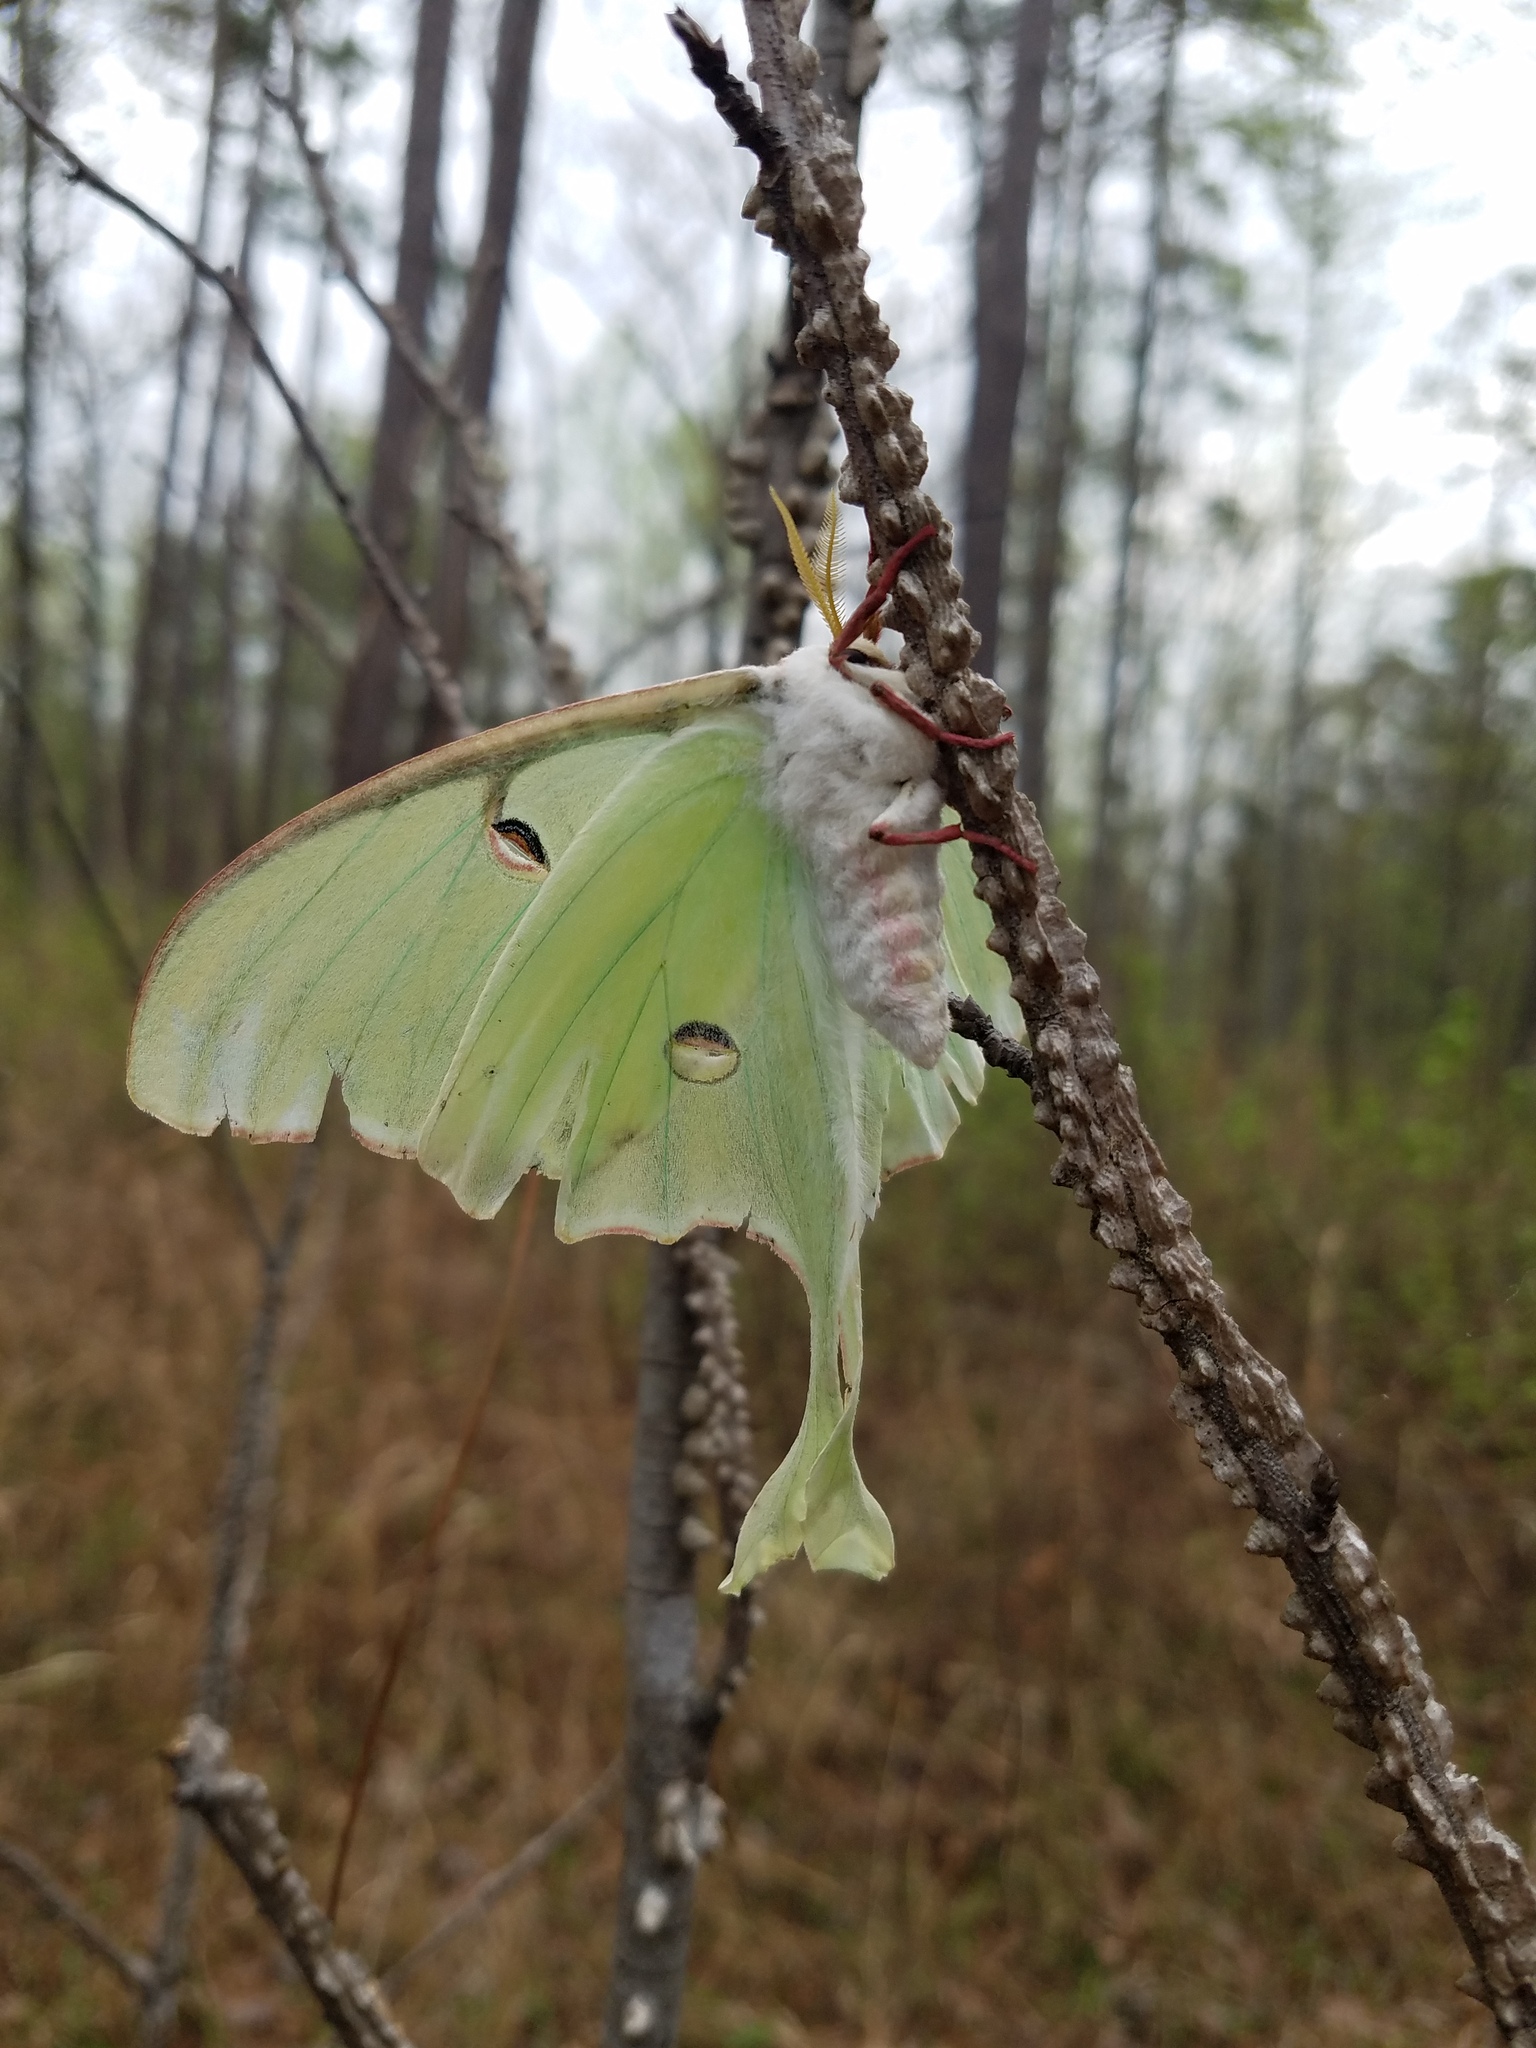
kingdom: Animalia
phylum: Arthropoda
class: Insecta
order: Lepidoptera
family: Saturniidae
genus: Actias
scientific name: Actias luna
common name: Luna moth
